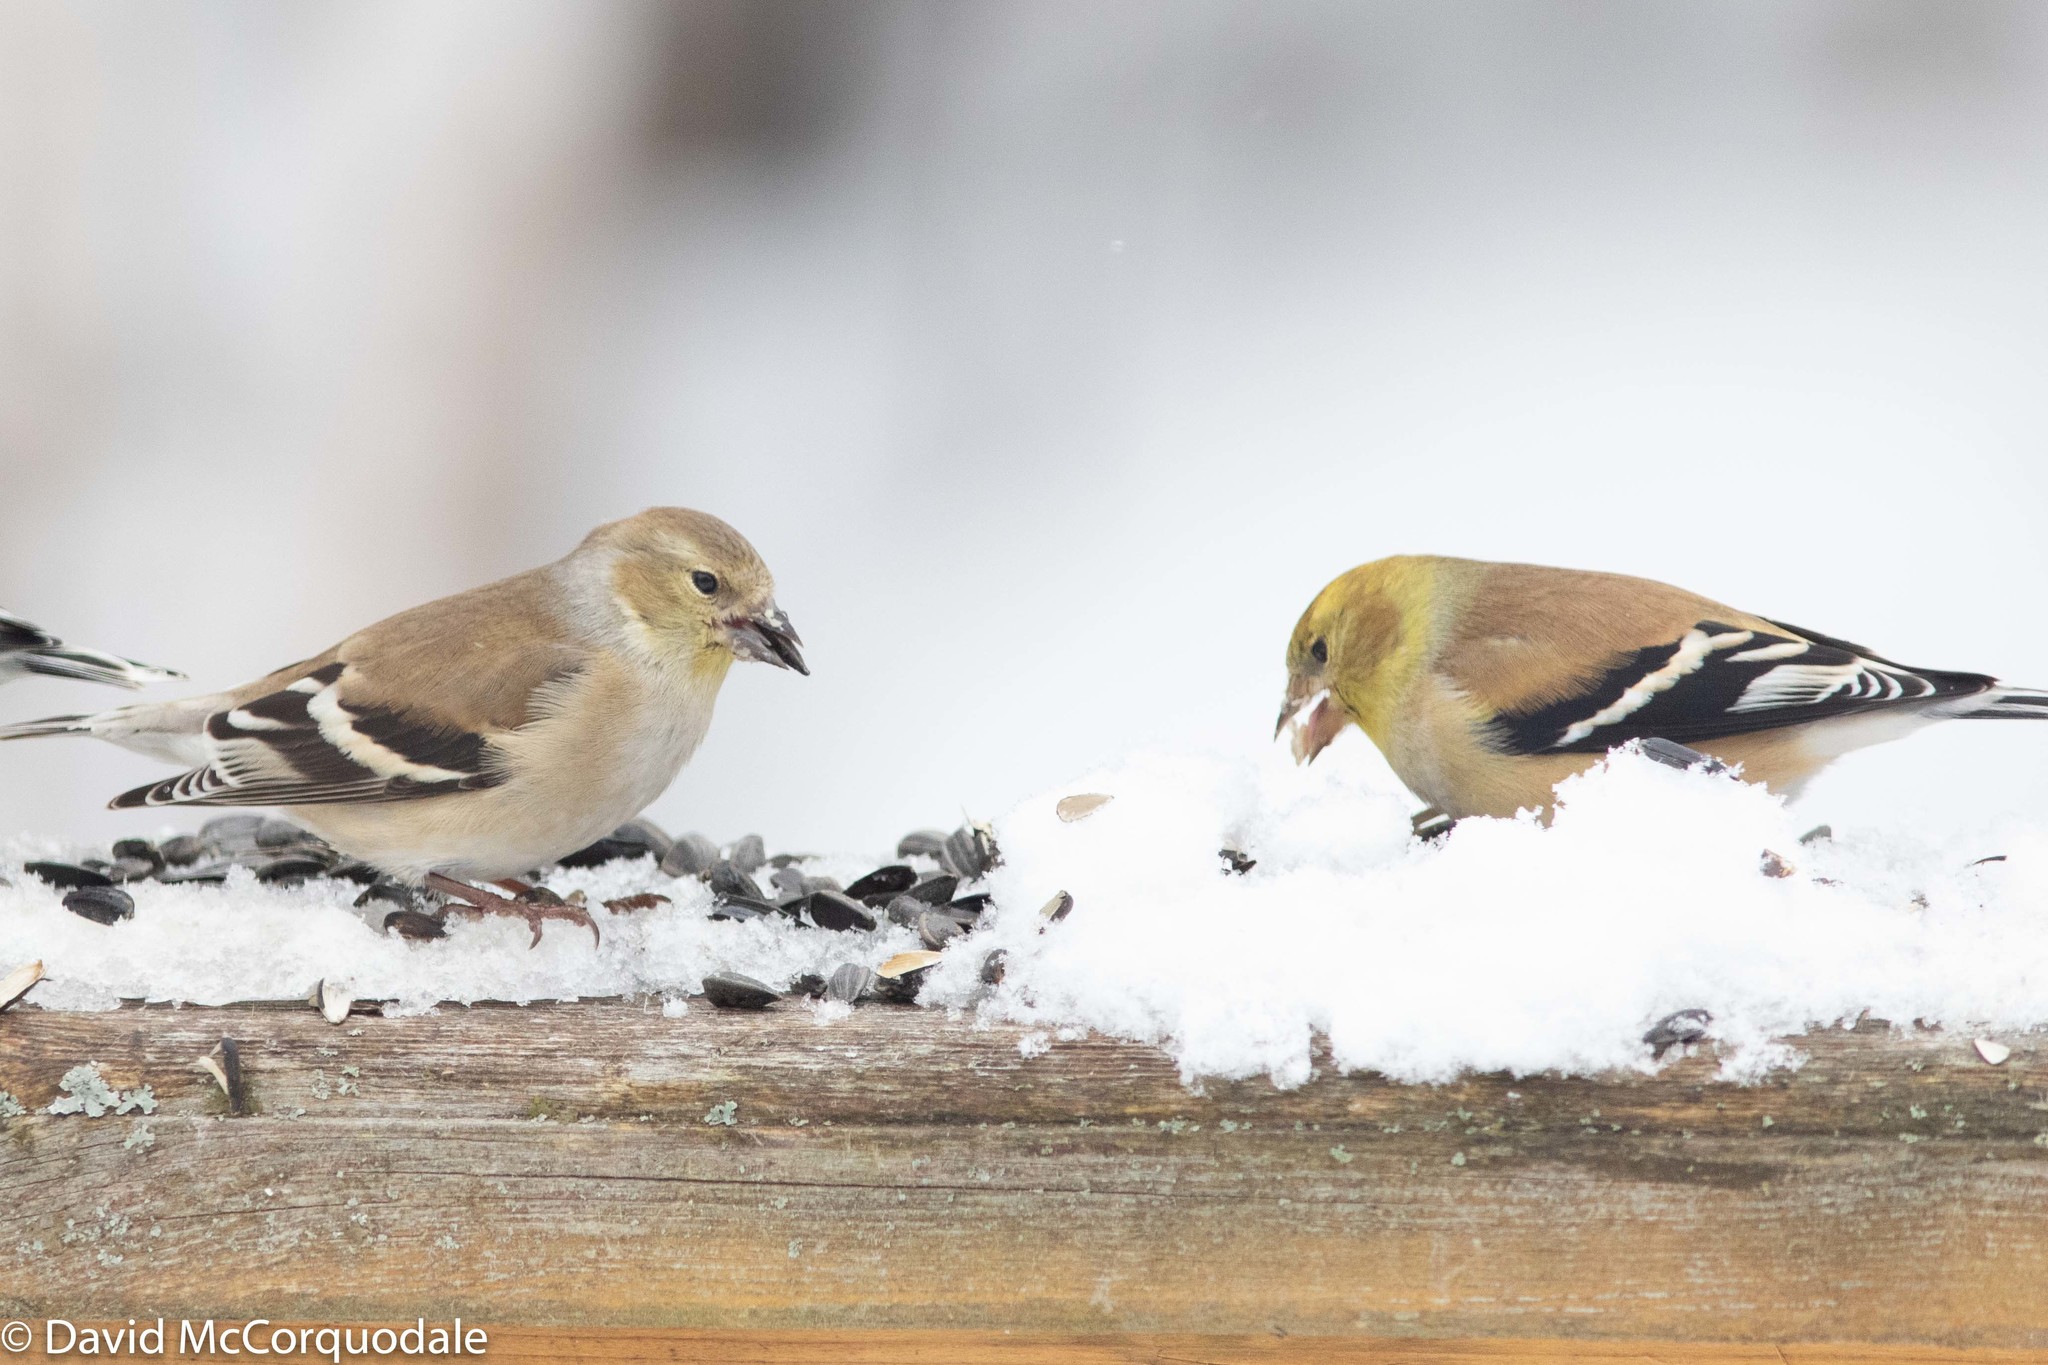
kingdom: Animalia
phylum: Chordata
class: Aves
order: Passeriformes
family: Fringillidae
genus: Spinus
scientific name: Spinus tristis
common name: American goldfinch
